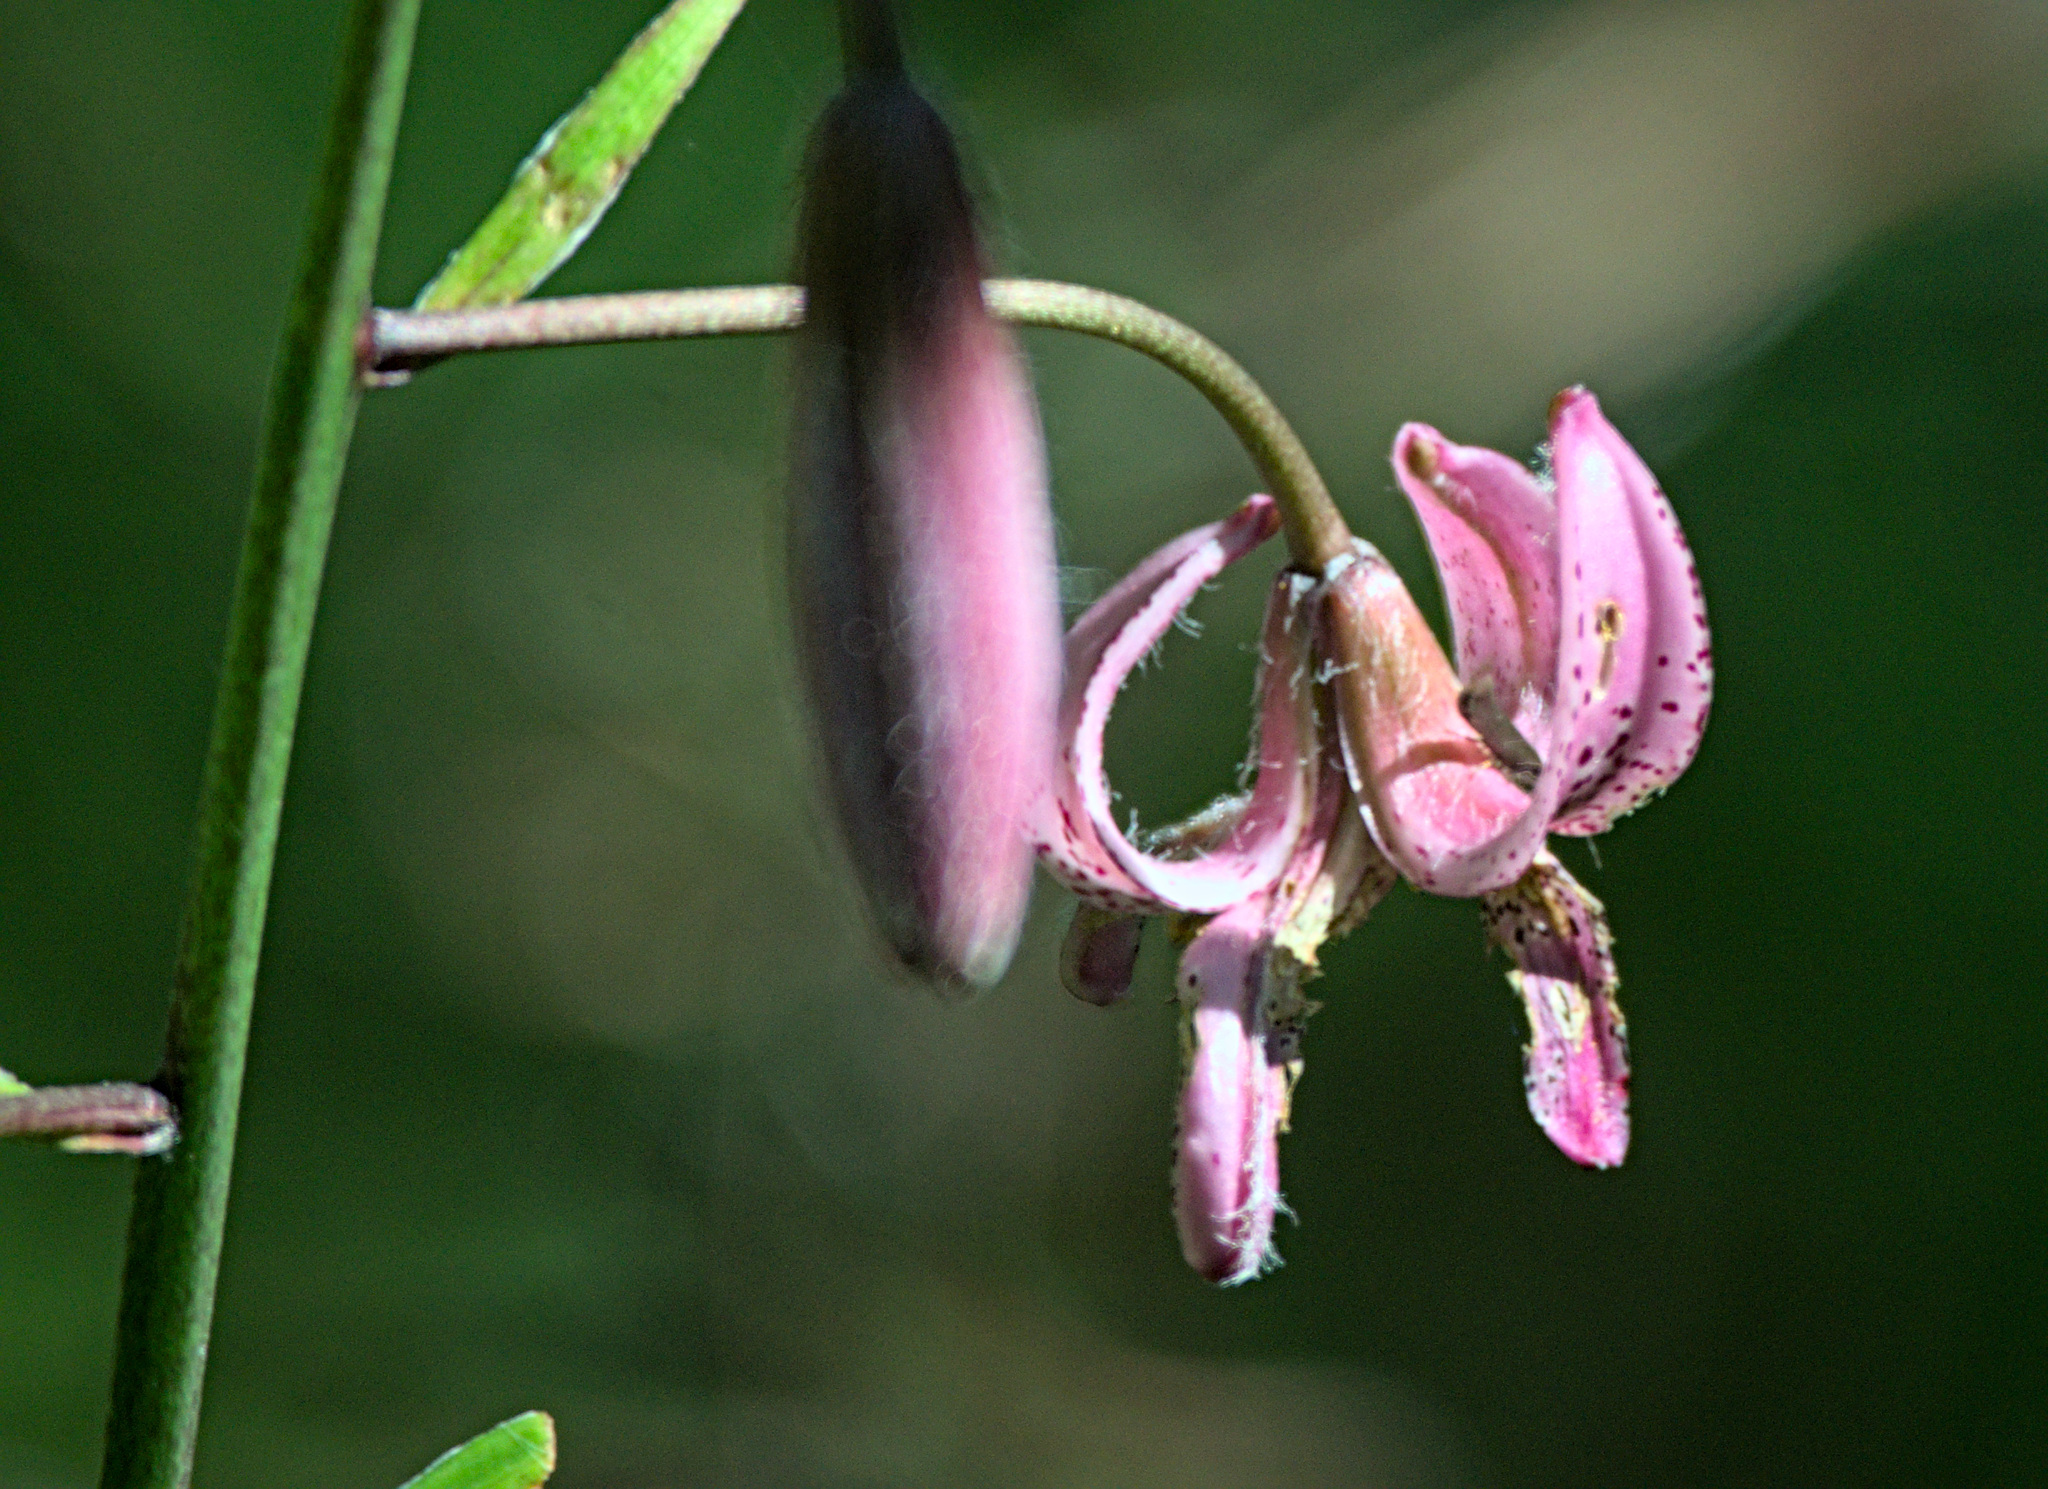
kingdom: Plantae
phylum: Tracheophyta
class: Liliopsida
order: Liliales
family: Liliaceae
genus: Lilium
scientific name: Lilium martagon
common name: Martagon lily
